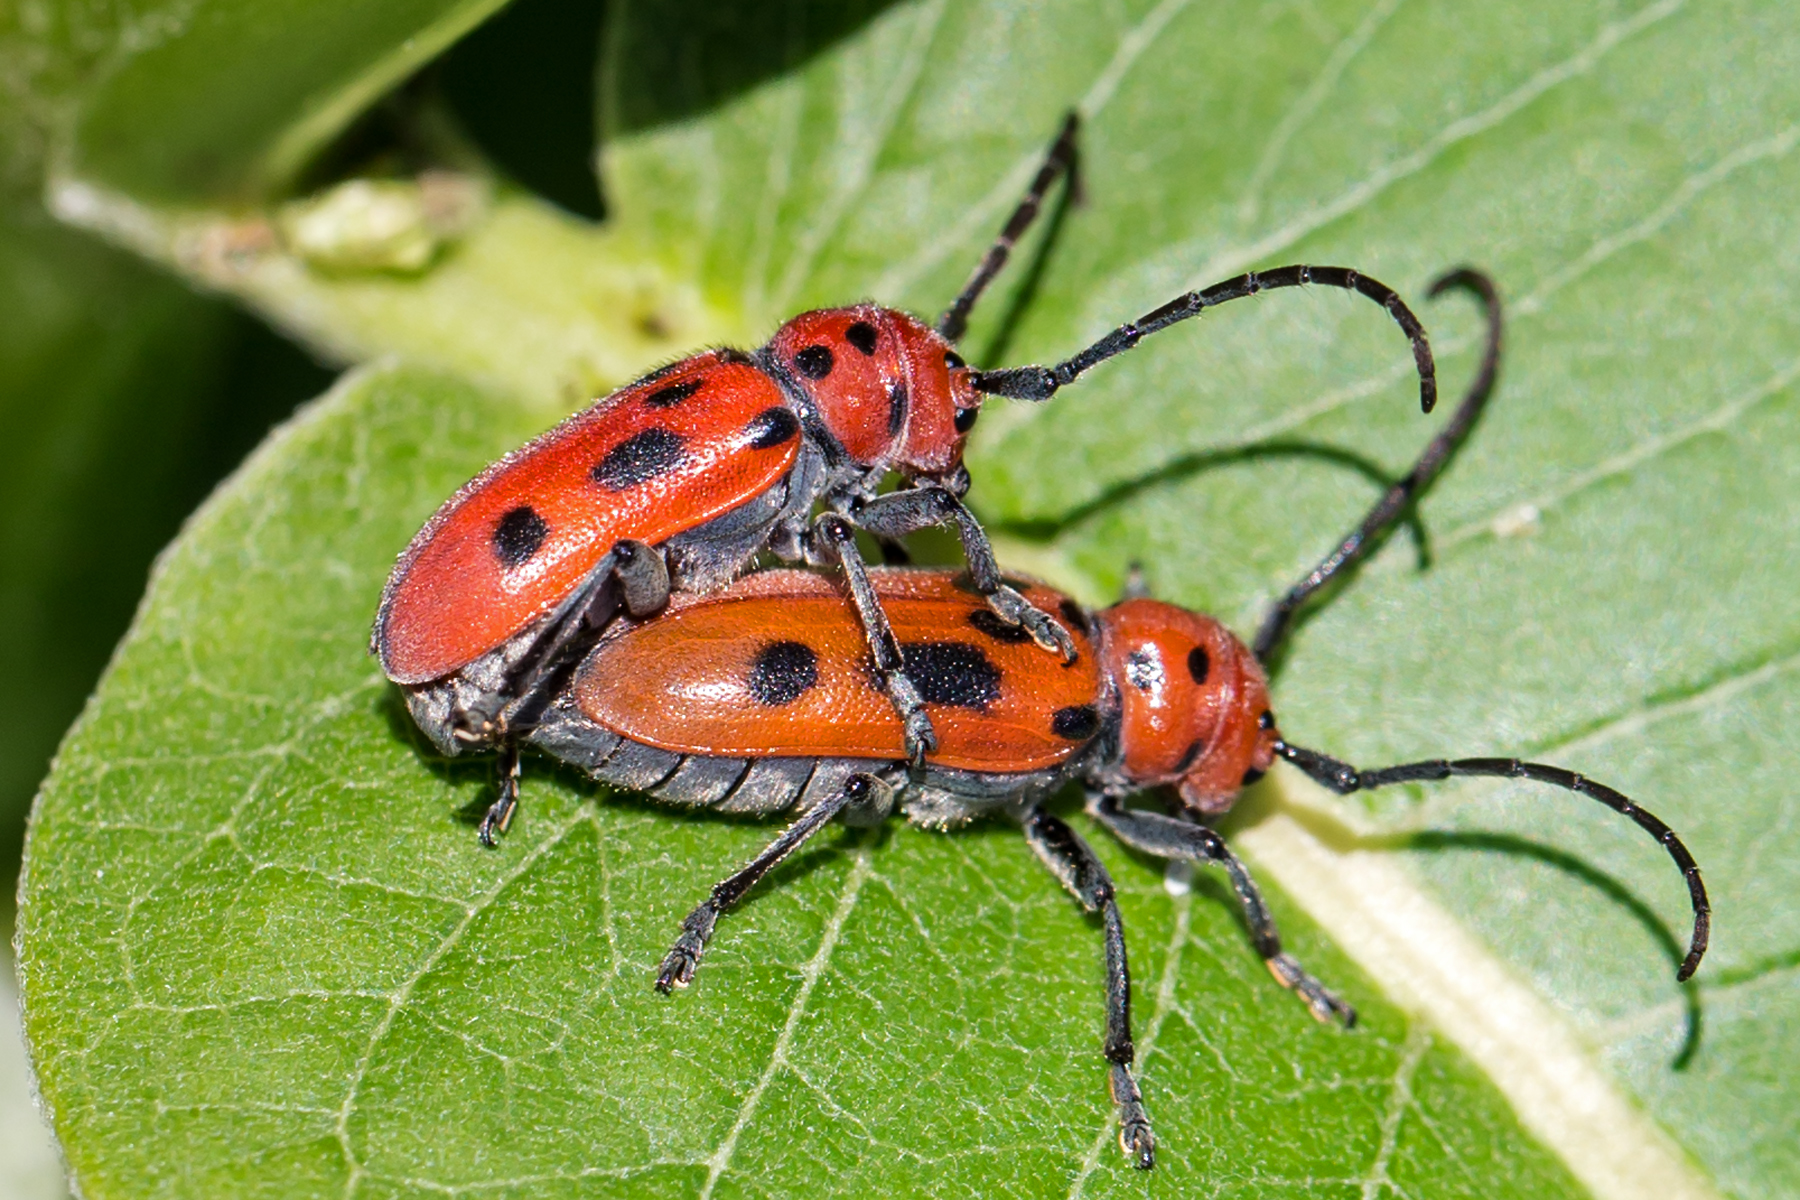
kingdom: Animalia
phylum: Arthropoda
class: Insecta
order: Coleoptera
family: Cerambycidae
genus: Tetraopes
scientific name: Tetraopes tetrophthalmus
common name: Red milkweed beetle
